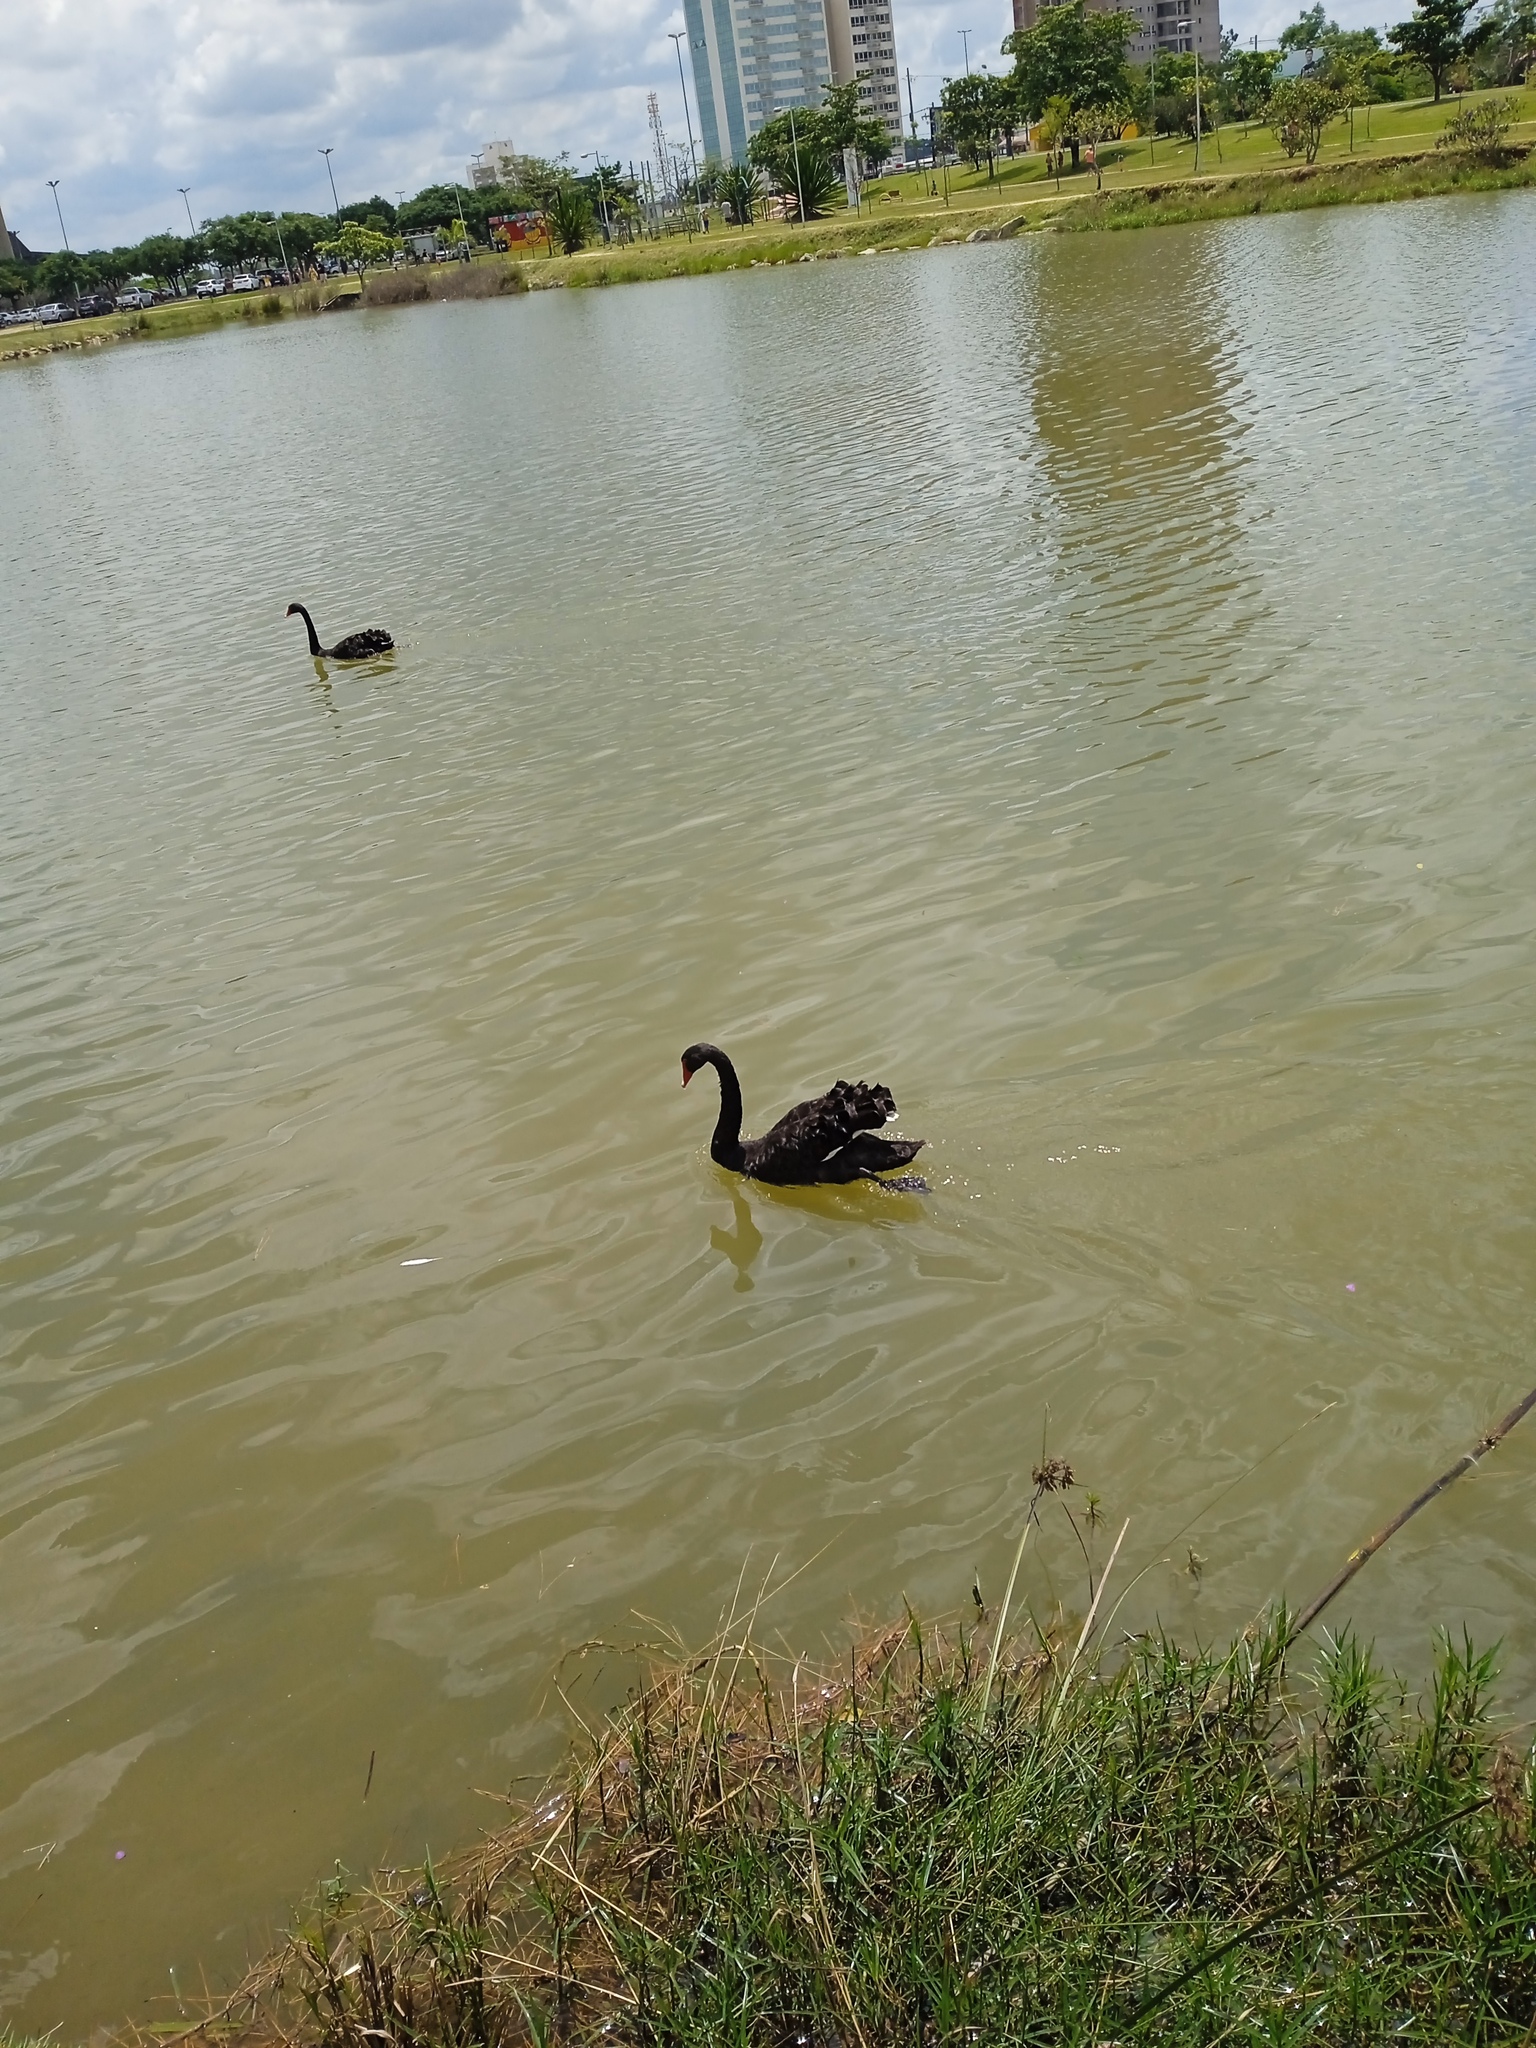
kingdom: Animalia
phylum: Chordata
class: Aves
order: Anseriformes
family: Anatidae
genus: Cygnus
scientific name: Cygnus atratus
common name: Black swan
